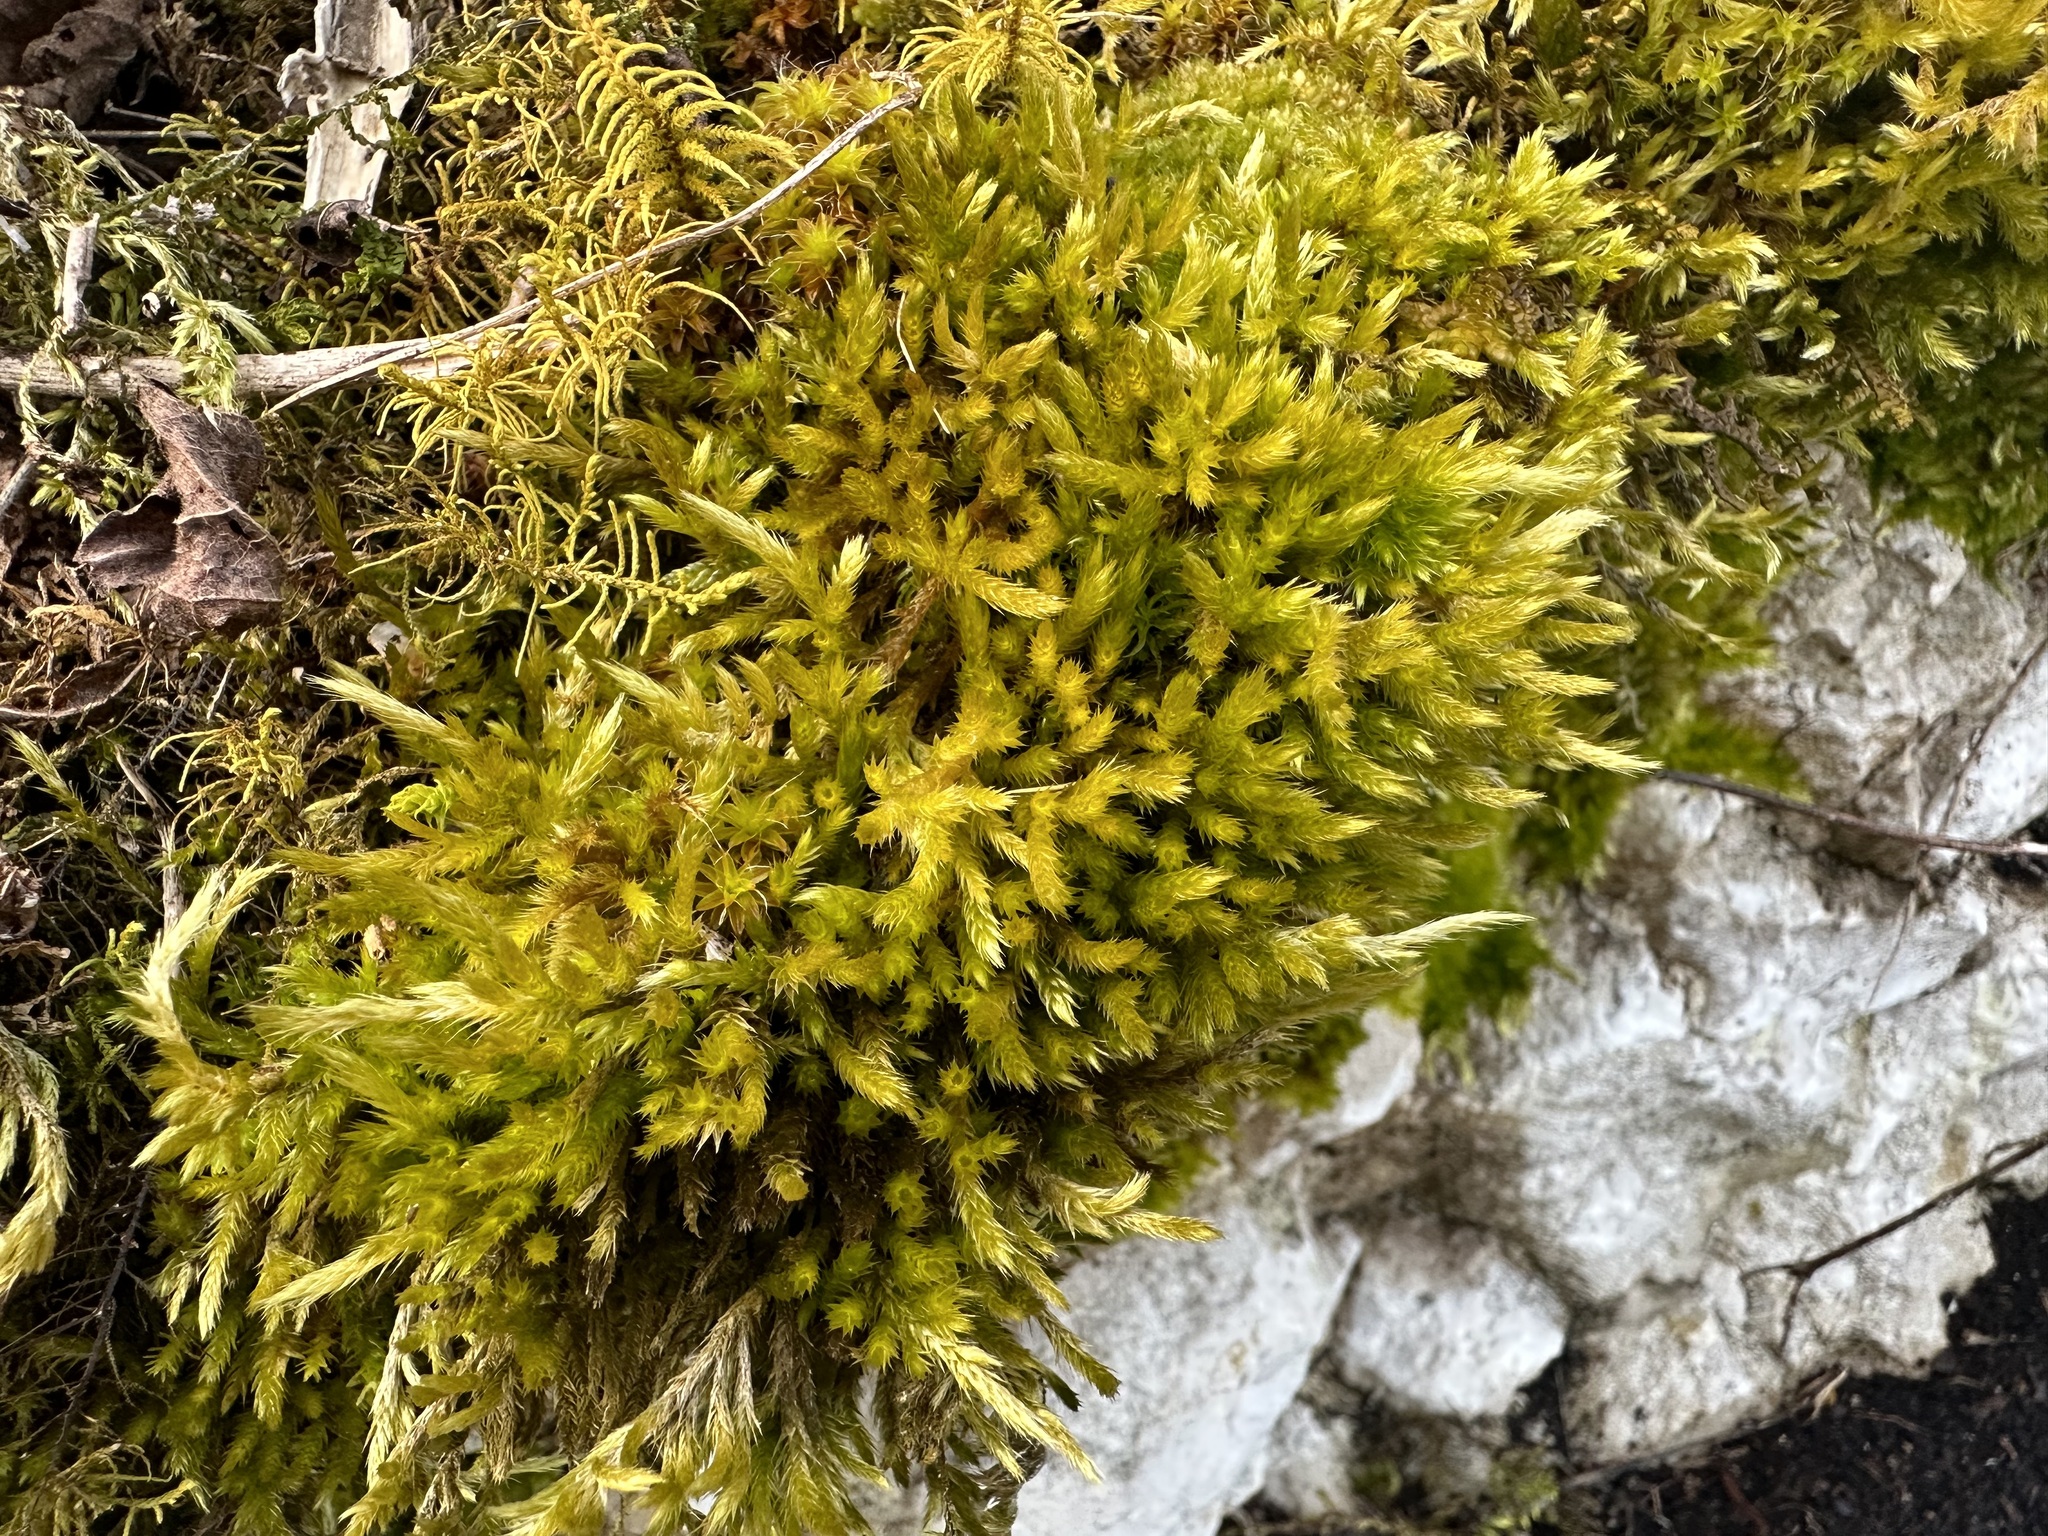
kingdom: Plantae
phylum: Bryophyta
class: Bryopsida
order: Hypnales
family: Brachytheciaceae
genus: Homalothecium
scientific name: Homalothecium lutescens
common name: Yellow feather-moss
